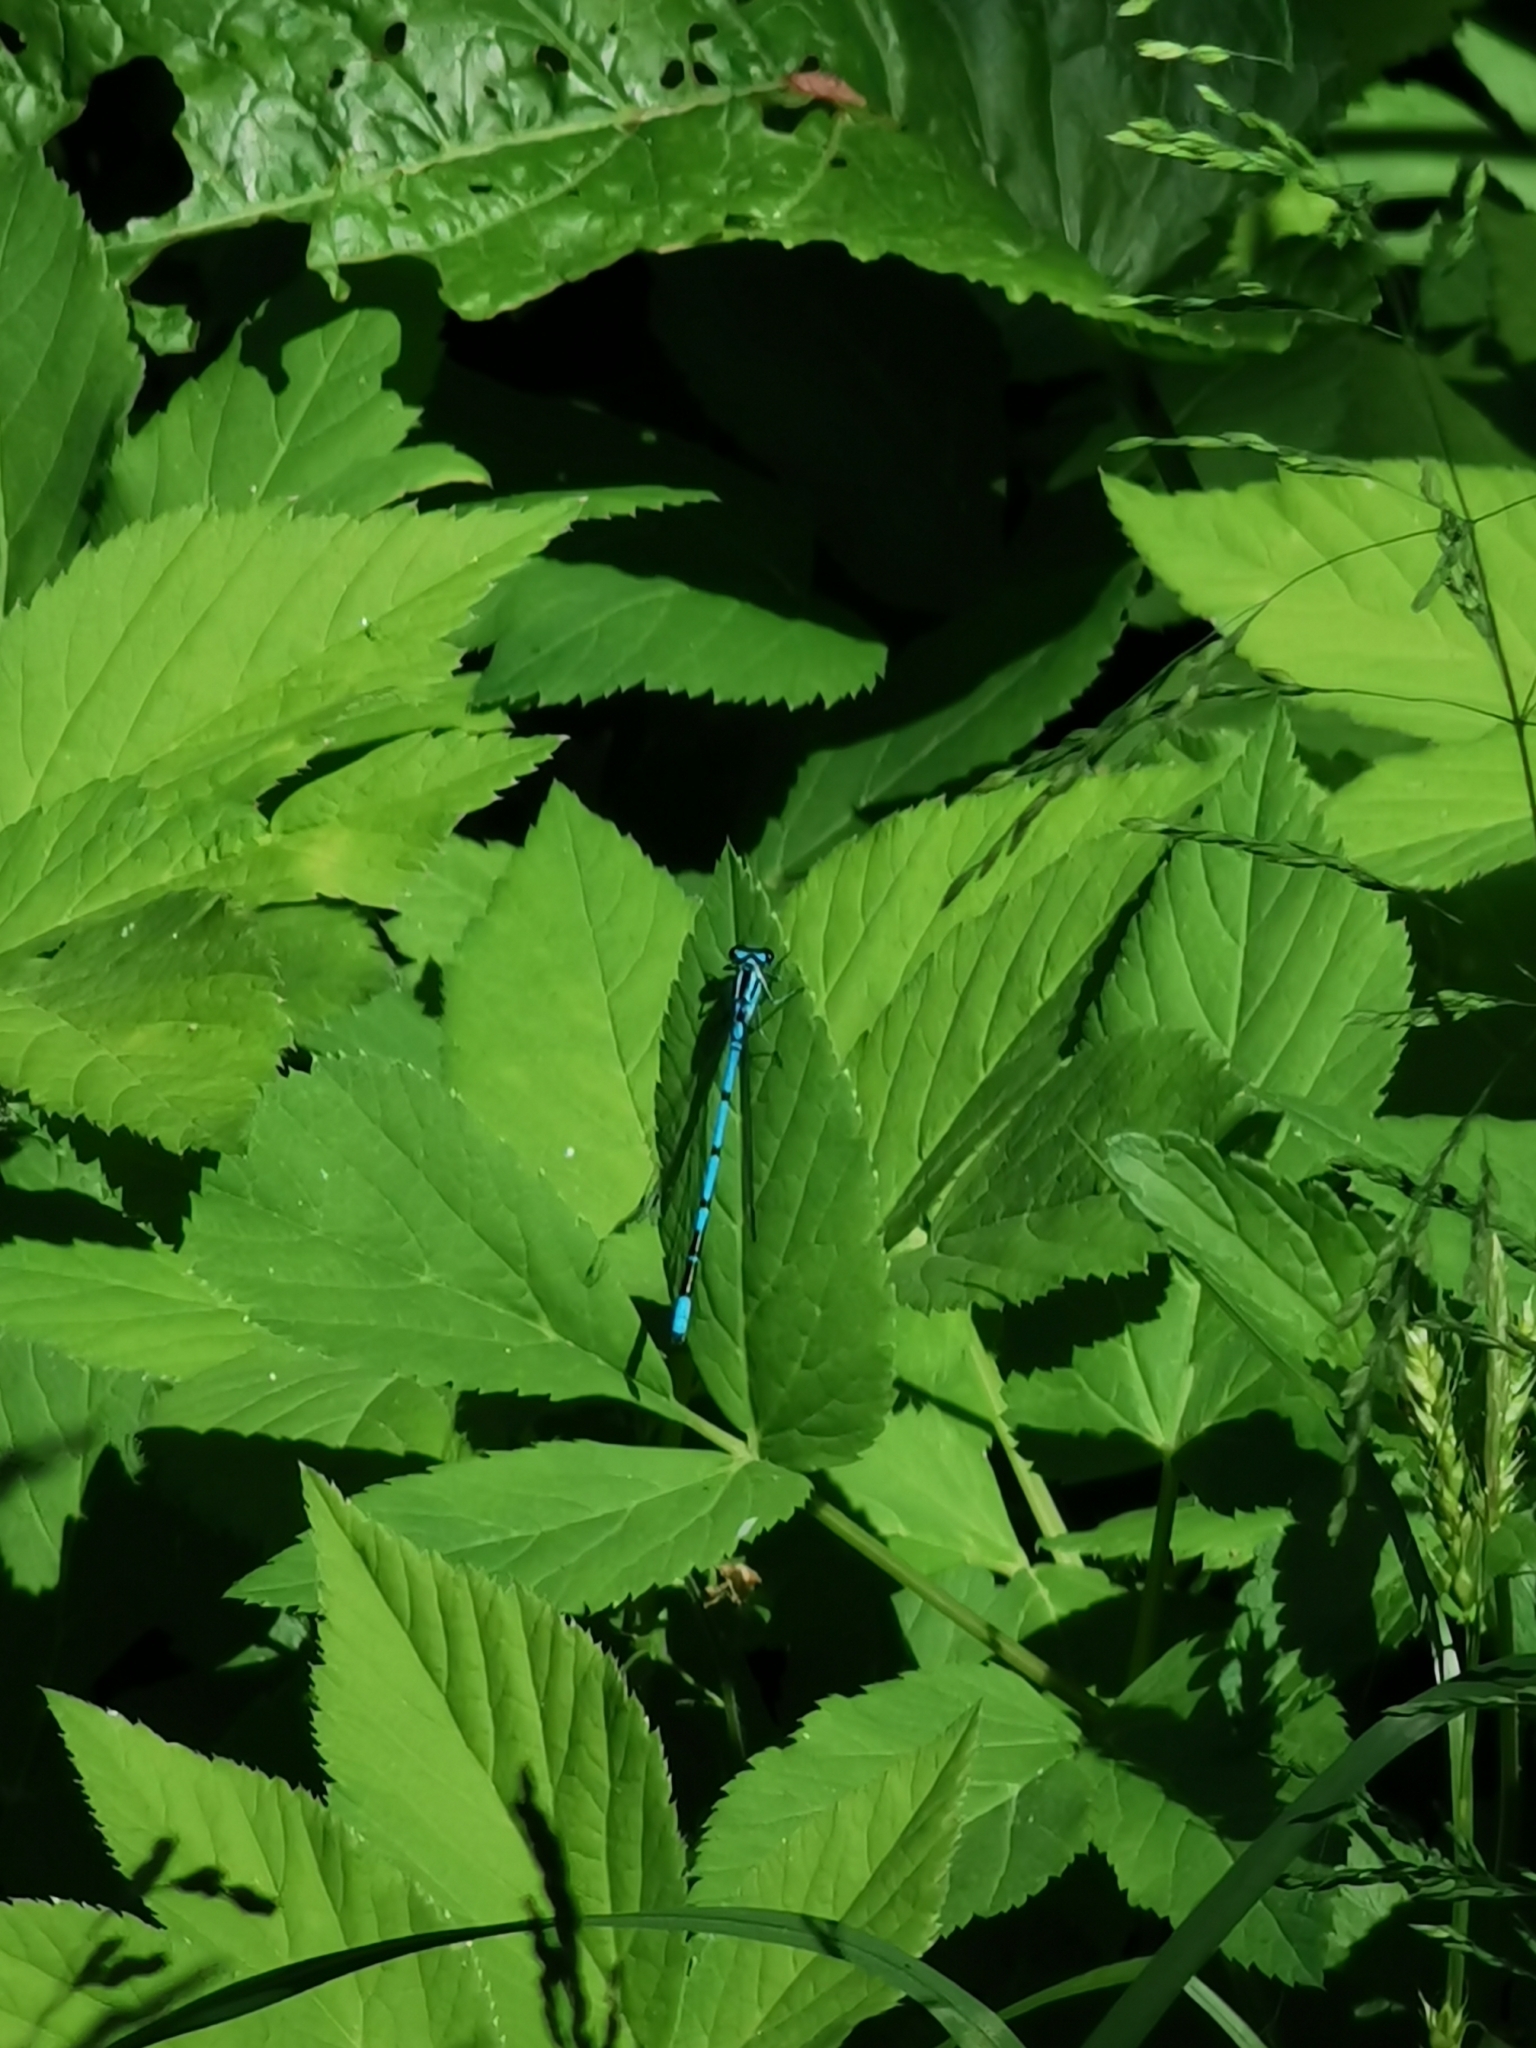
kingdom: Animalia
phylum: Arthropoda
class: Insecta
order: Odonata
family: Coenagrionidae
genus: Coenagrion
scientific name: Coenagrion puella
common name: Azure damselfly
